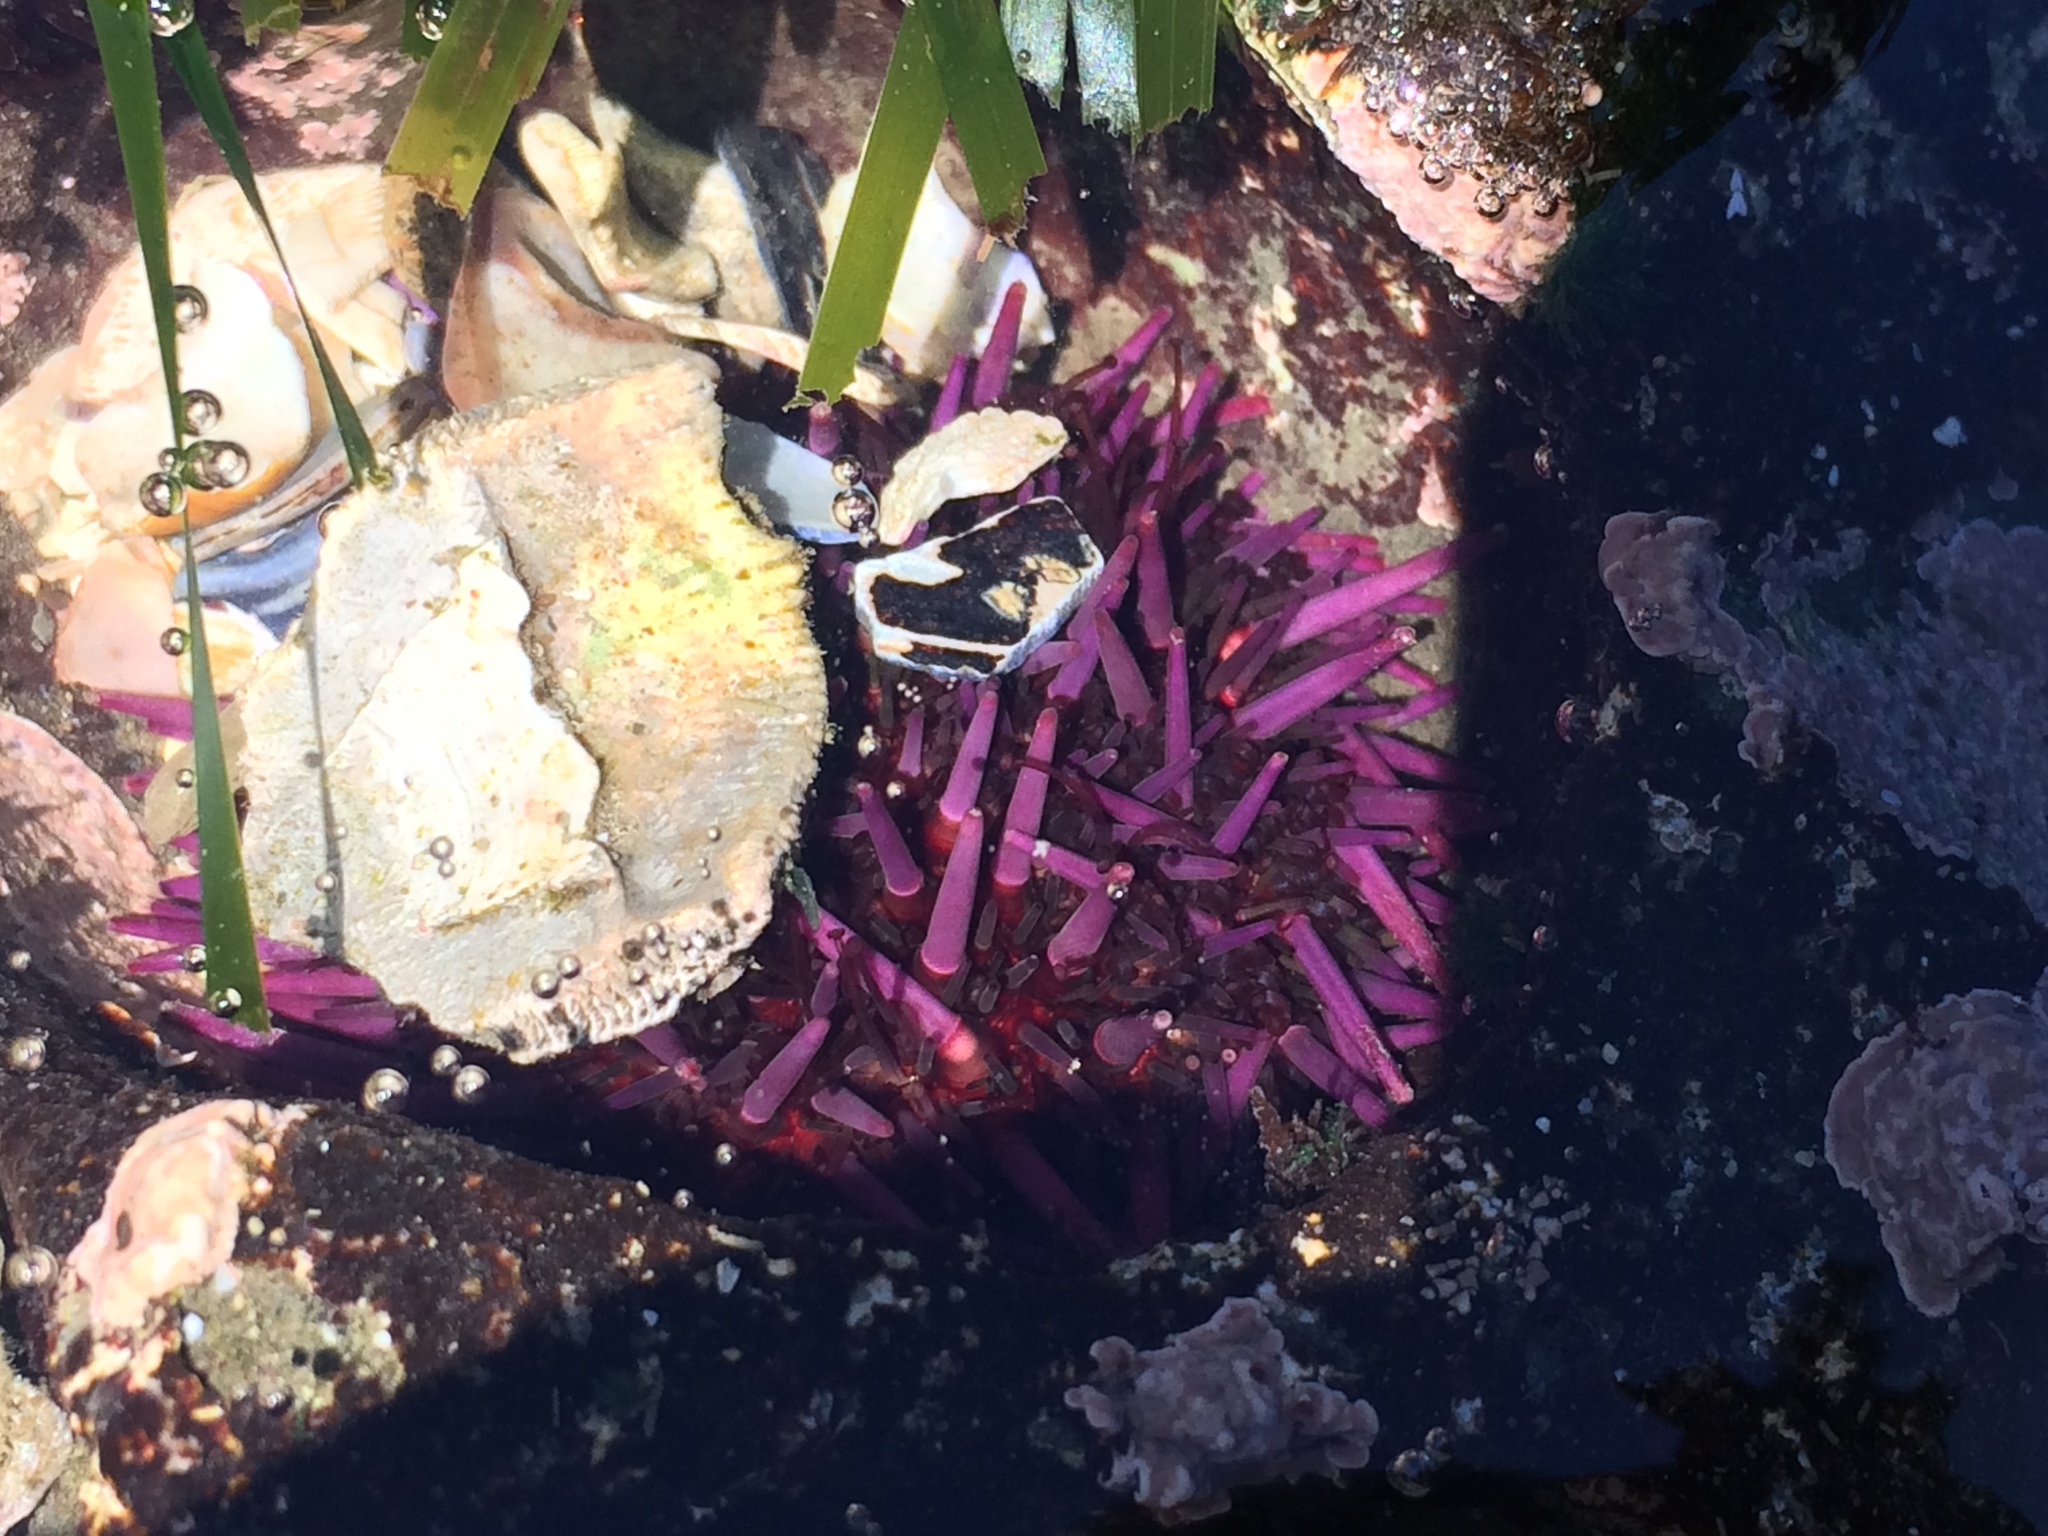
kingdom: Animalia
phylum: Echinodermata
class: Echinoidea
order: Camarodonta
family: Strongylocentrotidae
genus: Strongylocentrotus
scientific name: Strongylocentrotus purpuratus
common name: Purple sea urchin
